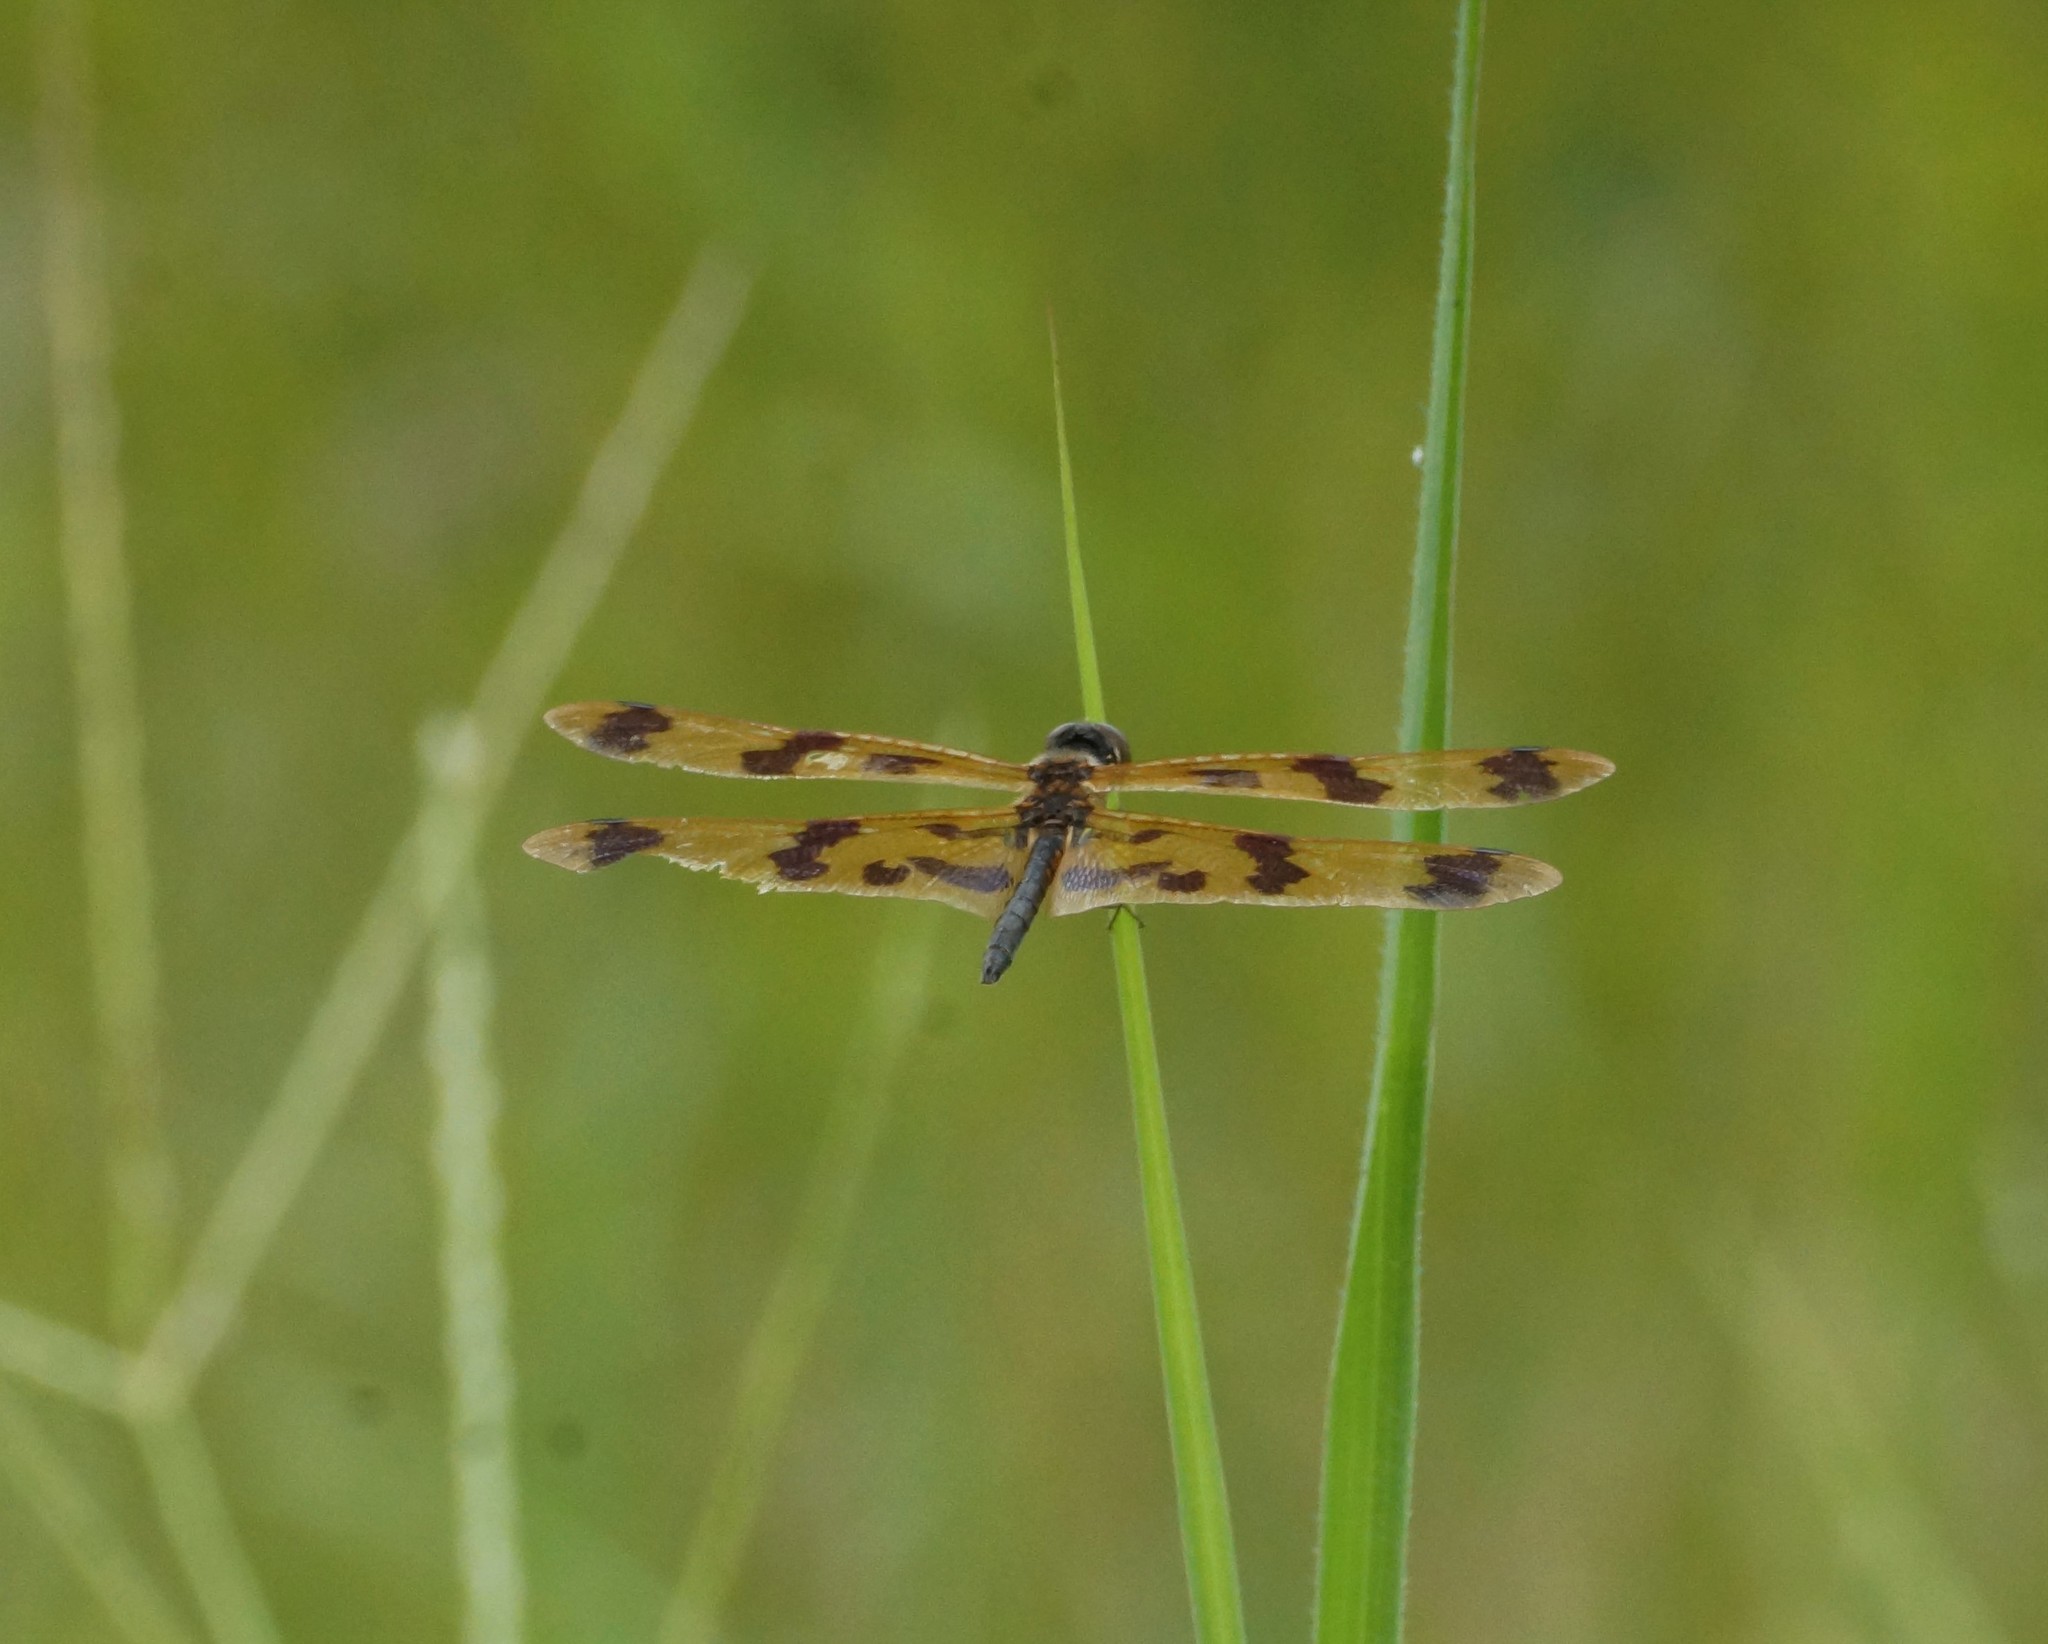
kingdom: Animalia
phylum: Arthropoda
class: Insecta
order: Odonata
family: Libellulidae
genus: Rhyothemis
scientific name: Rhyothemis graphiptera
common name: Graphic flutterer
